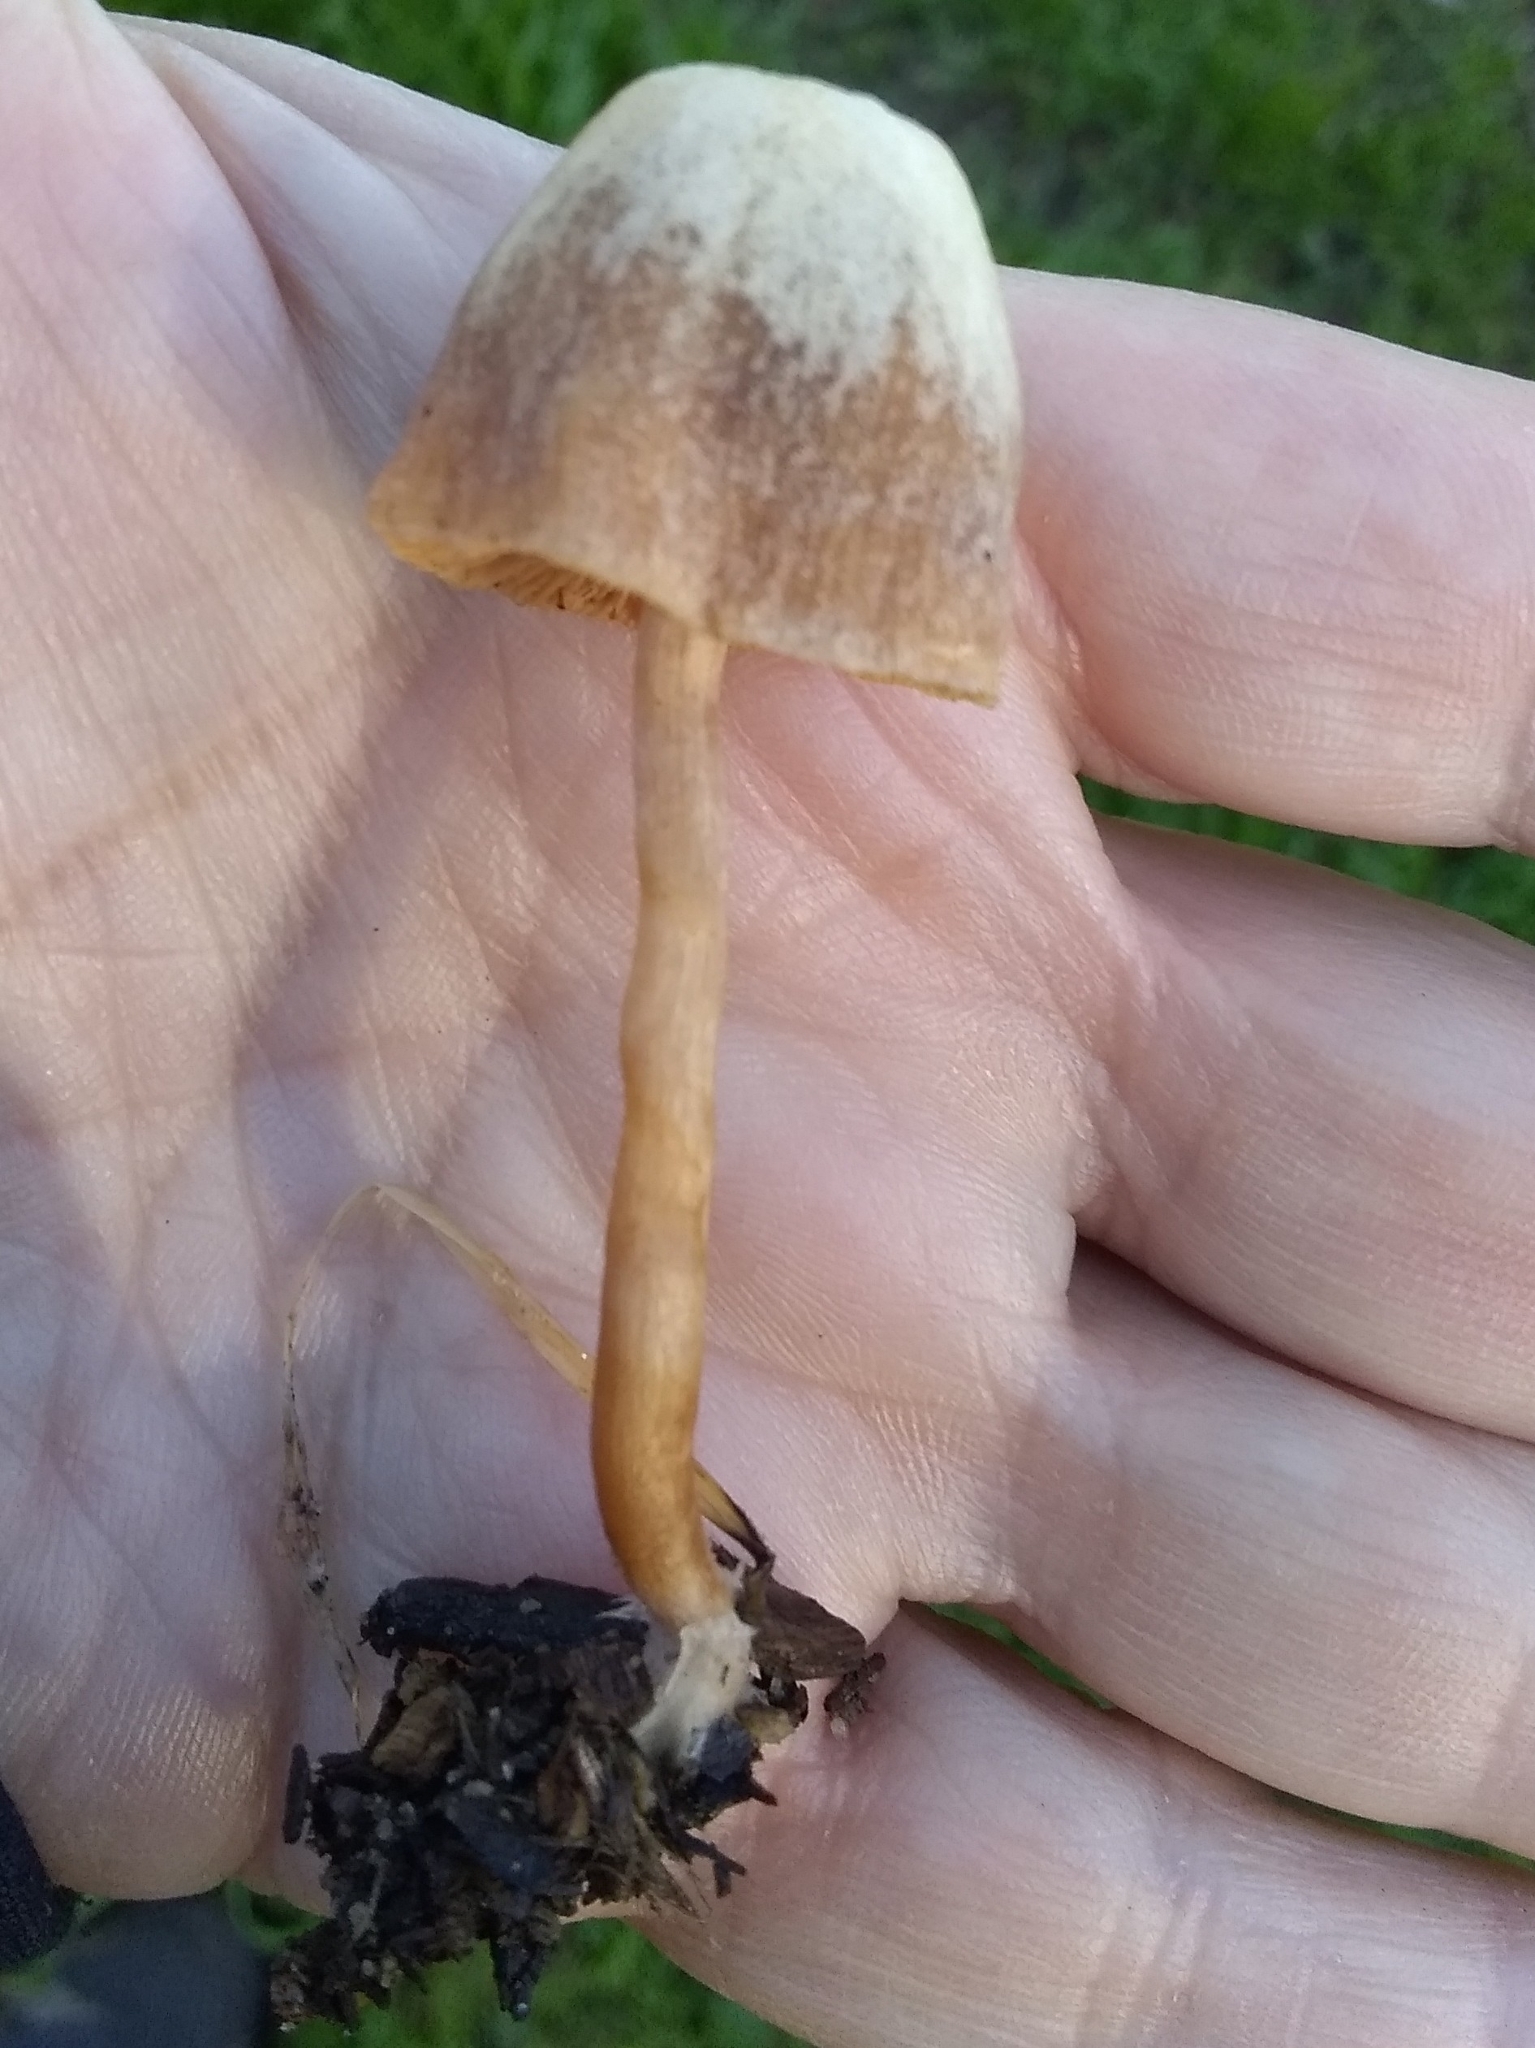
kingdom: Fungi
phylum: Basidiomycota
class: Agaricomycetes
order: Agaricales
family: Tubariaceae
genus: Tubaria
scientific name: Tubaria furfuracea
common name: Scurfy twiglet
